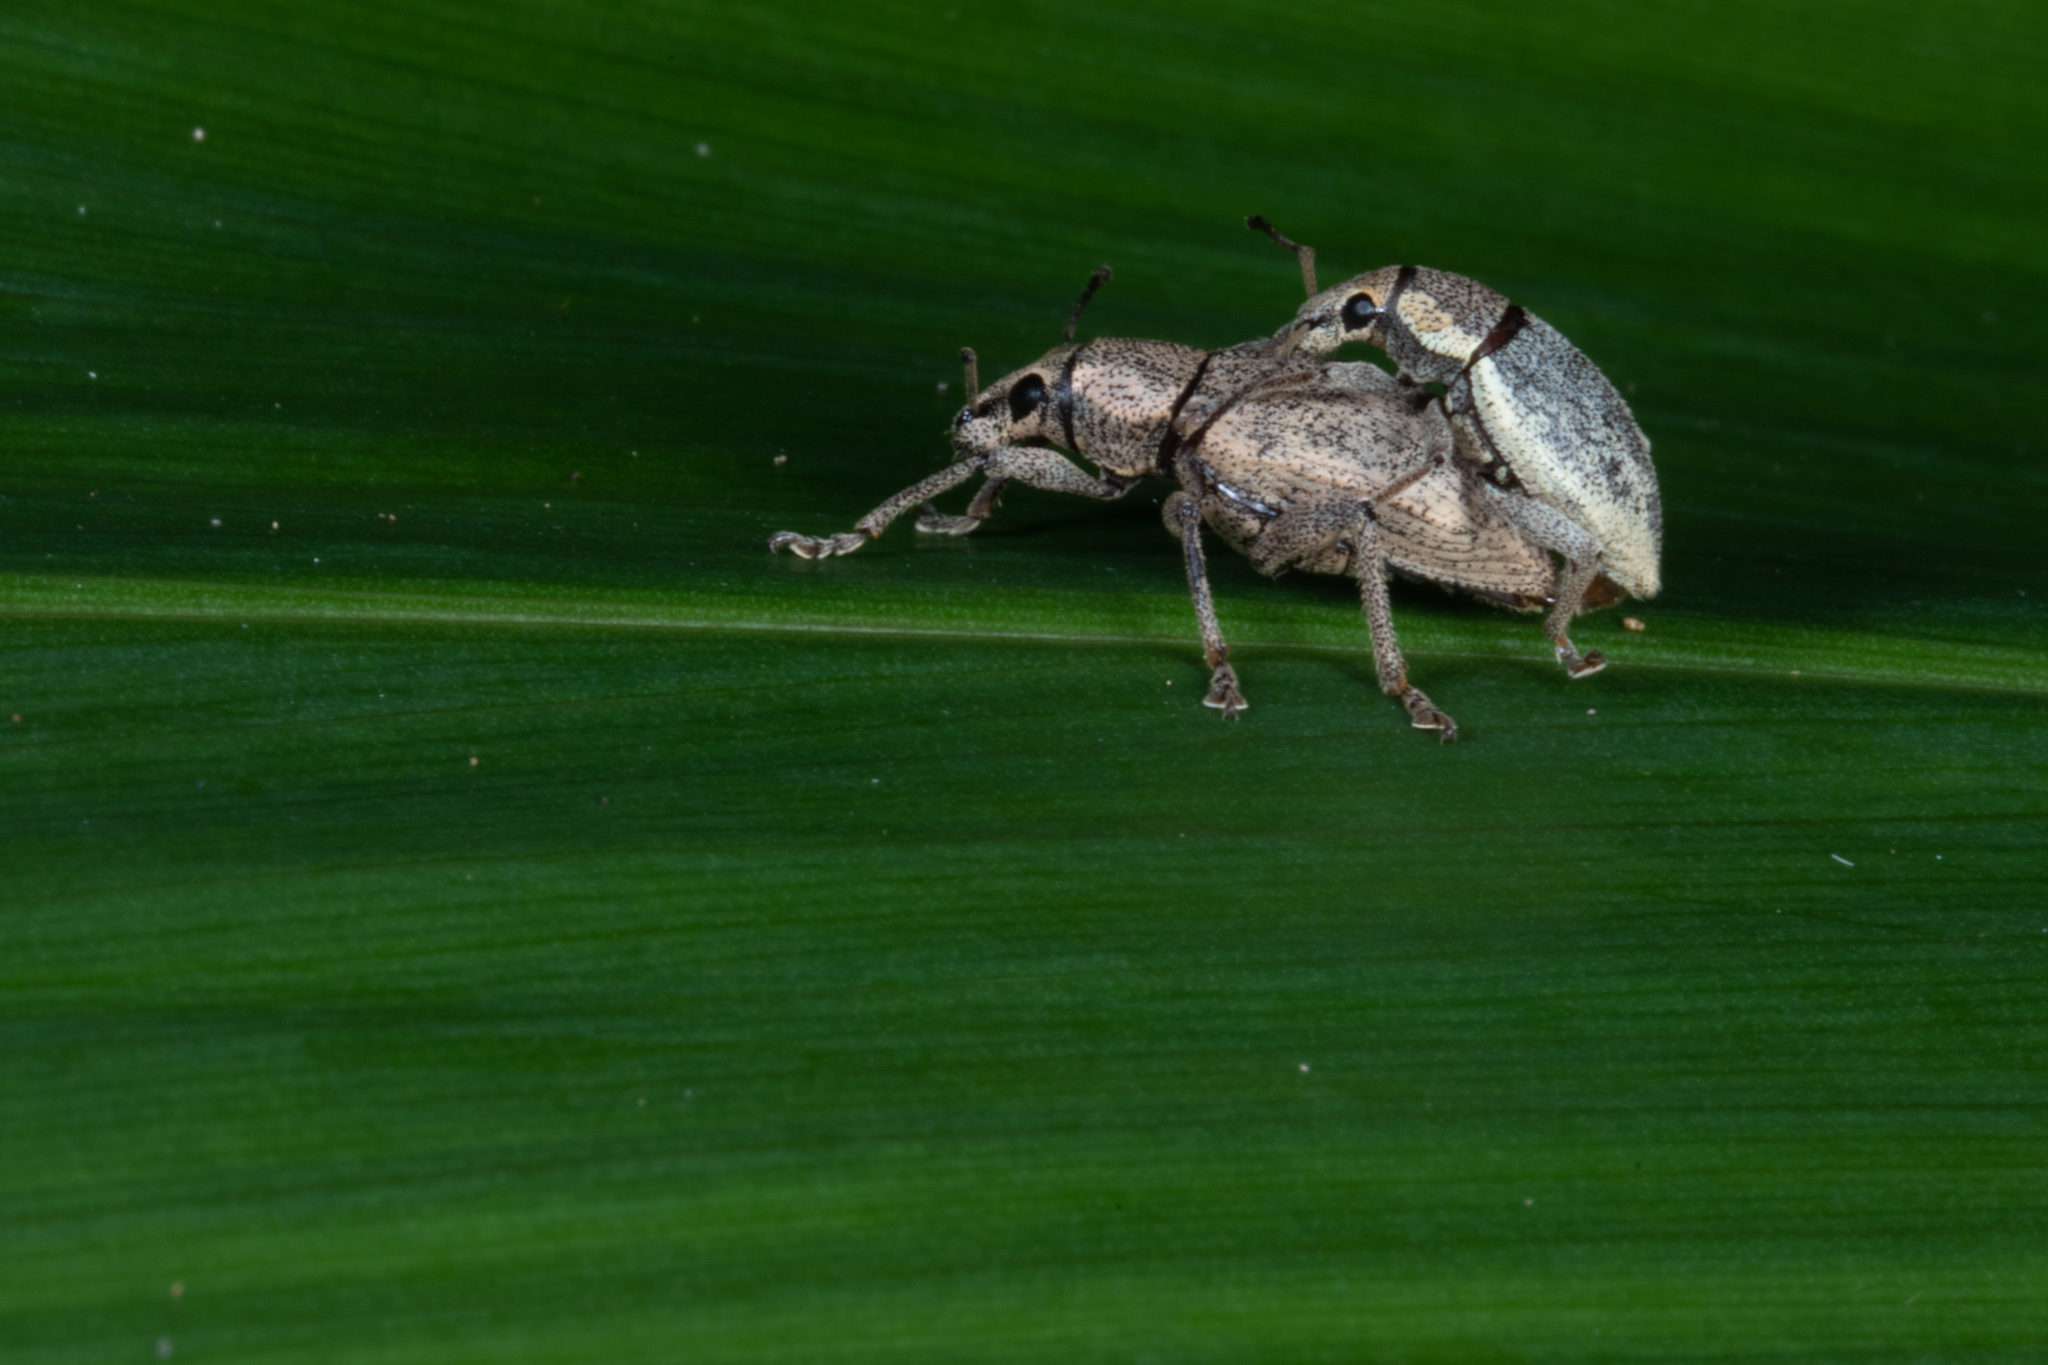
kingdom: Animalia
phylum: Arthropoda
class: Insecta
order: Coleoptera
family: Curculionidae
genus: Elytrurus
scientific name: Elytrurus niuei
